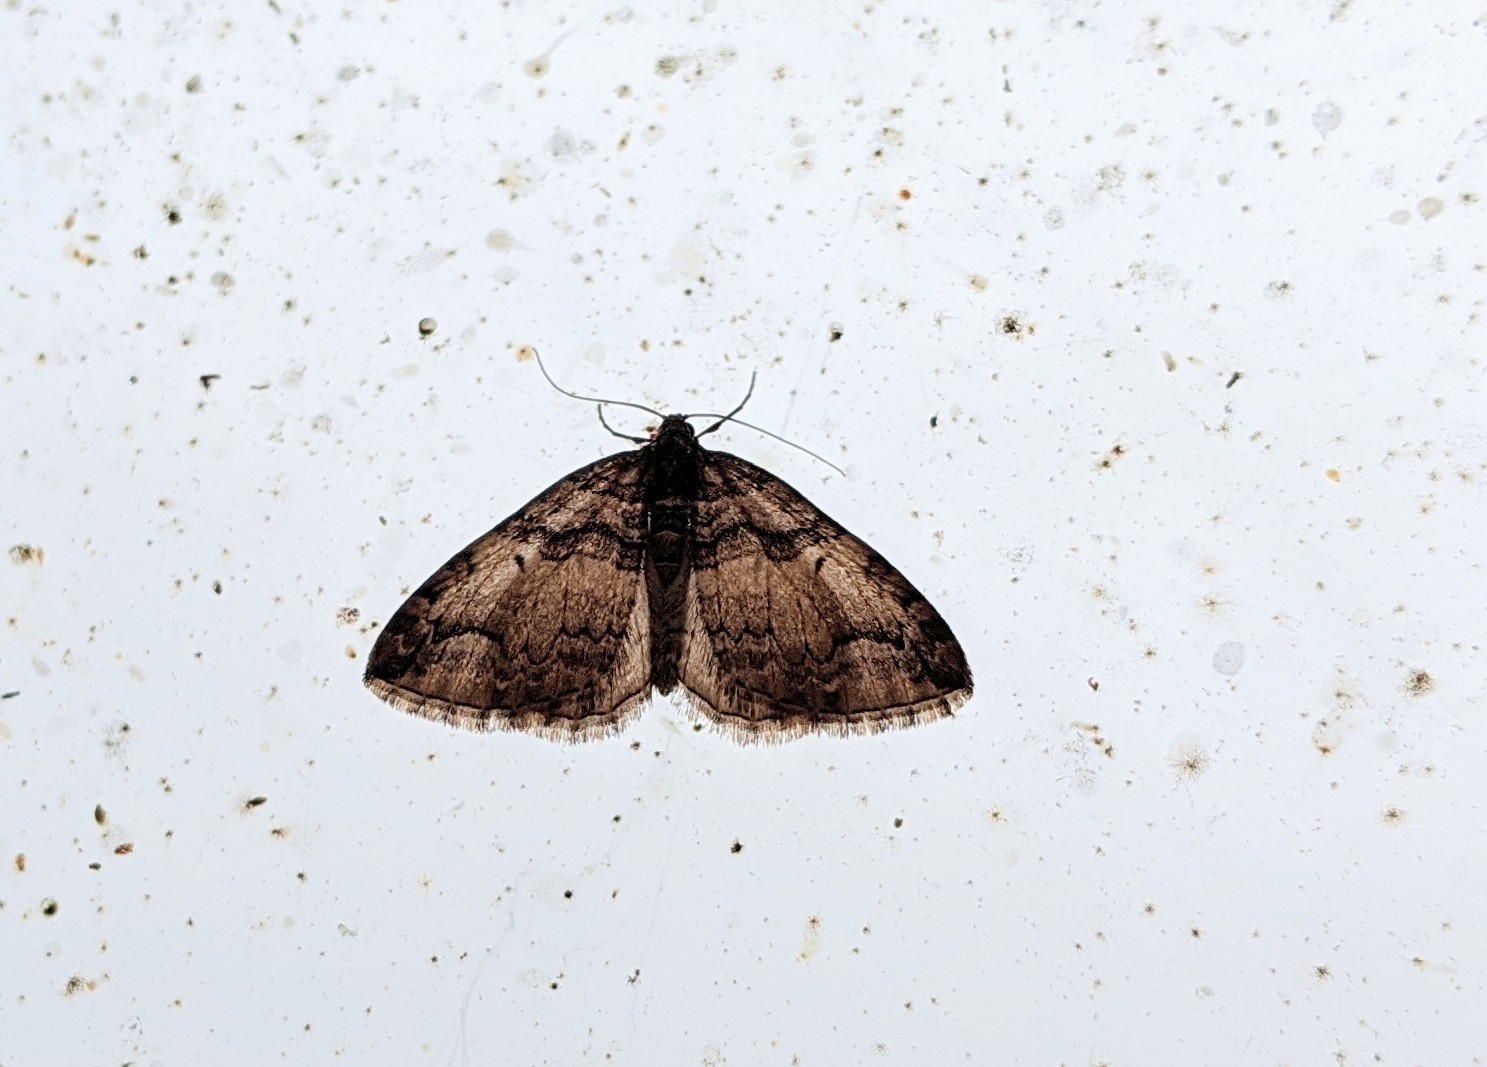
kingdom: Animalia
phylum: Arthropoda
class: Insecta
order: Lepidoptera
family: Geometridae
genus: Anticlea
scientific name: Anticlea vasiliata
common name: Variable carpet
